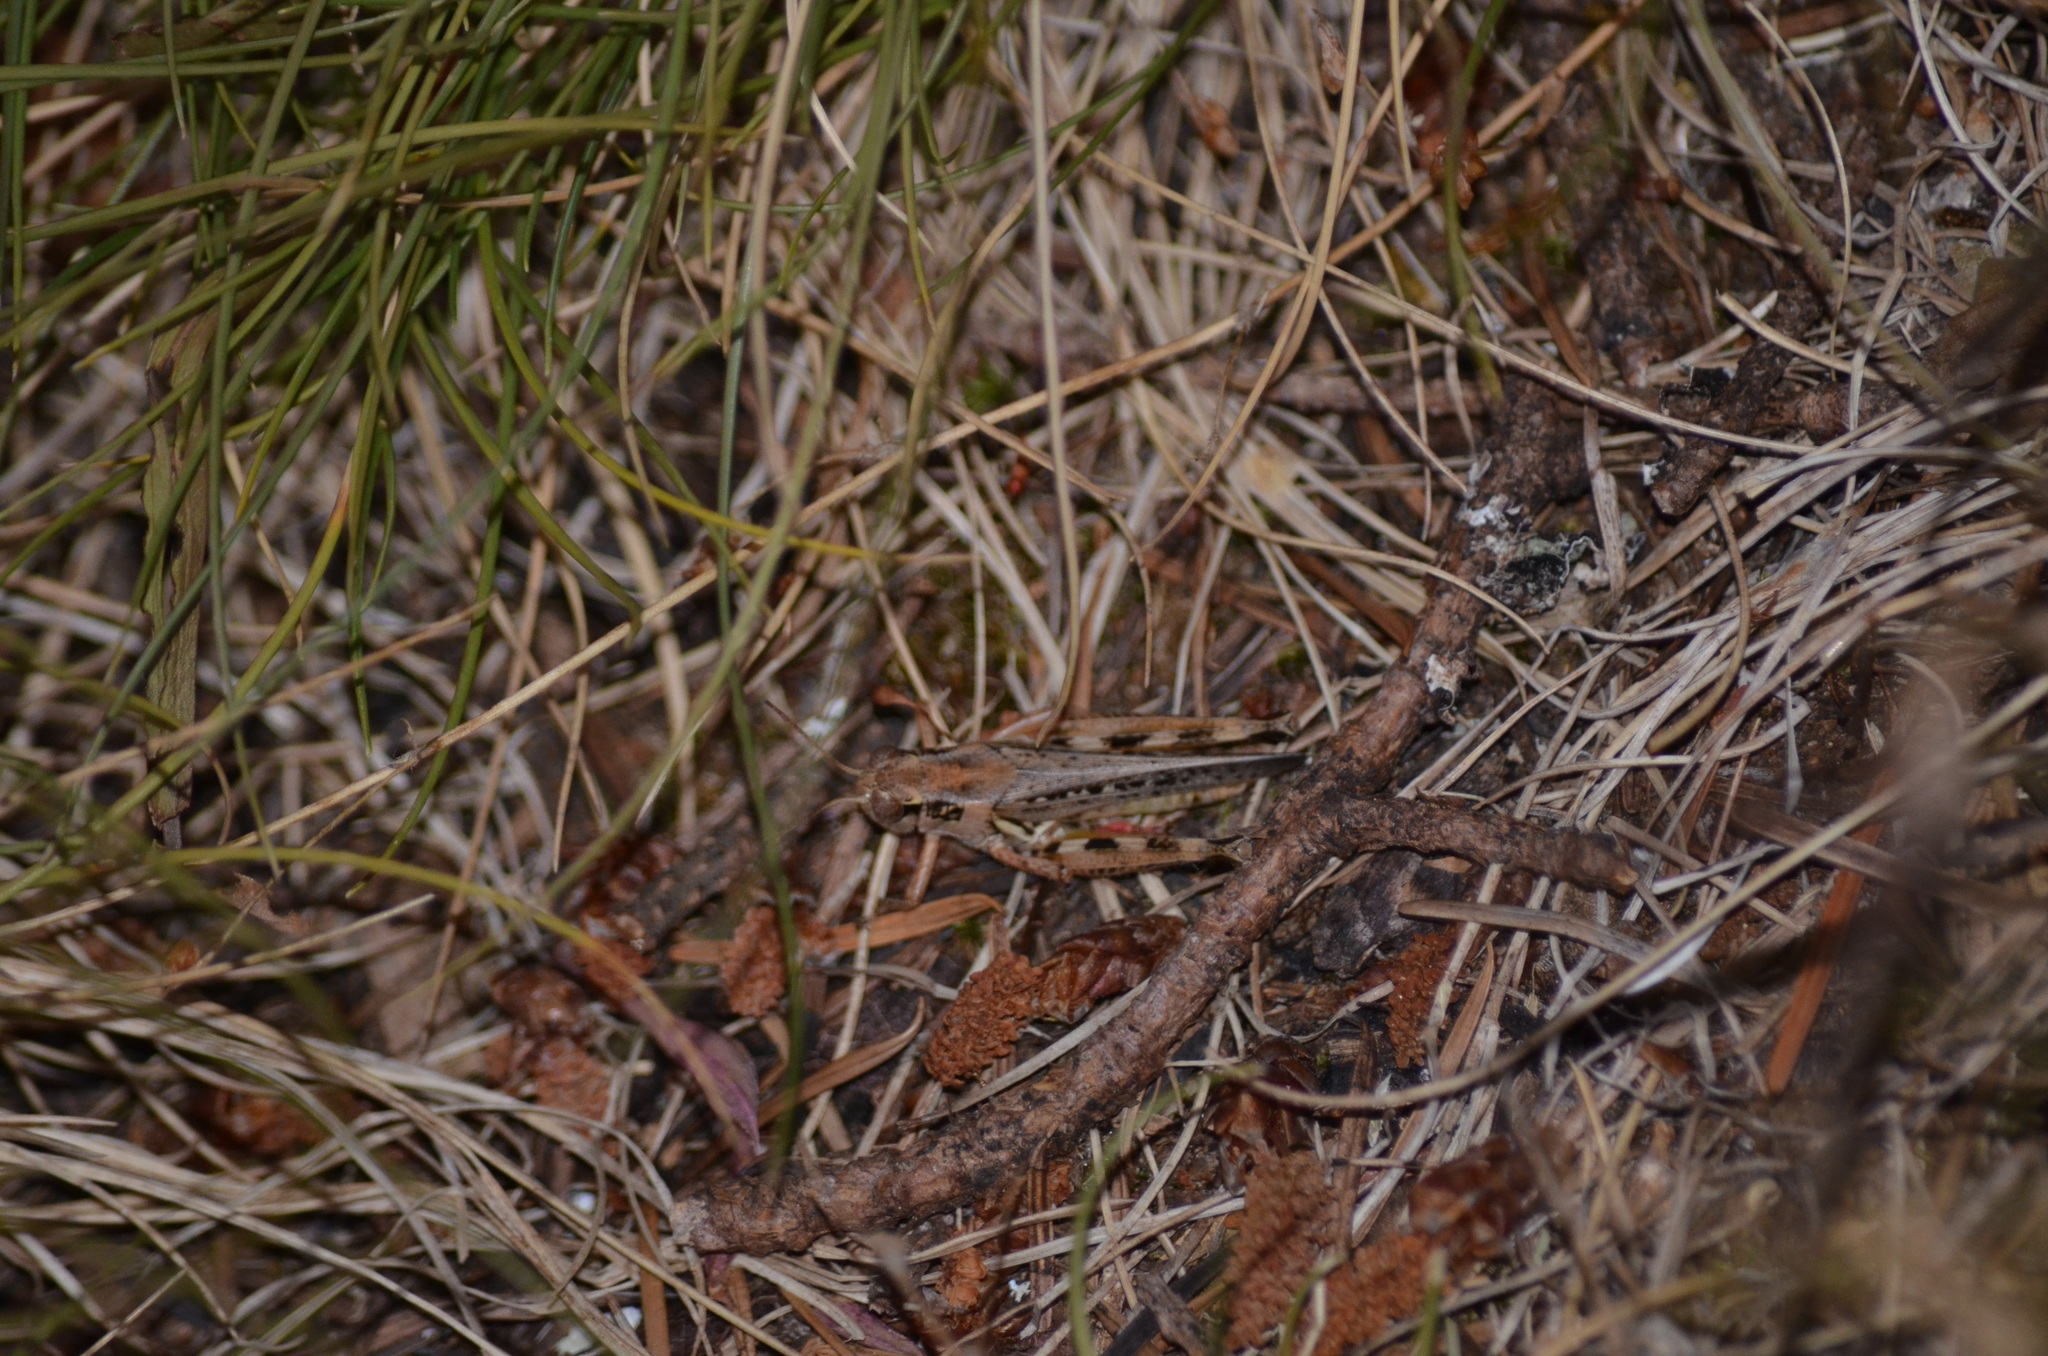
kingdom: Animalia
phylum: Arthropoda
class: Insecta
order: Orthoptera
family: Acrididae
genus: Melanoplus
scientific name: Melanoplus sanguinipes
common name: Migratory grasshopper
